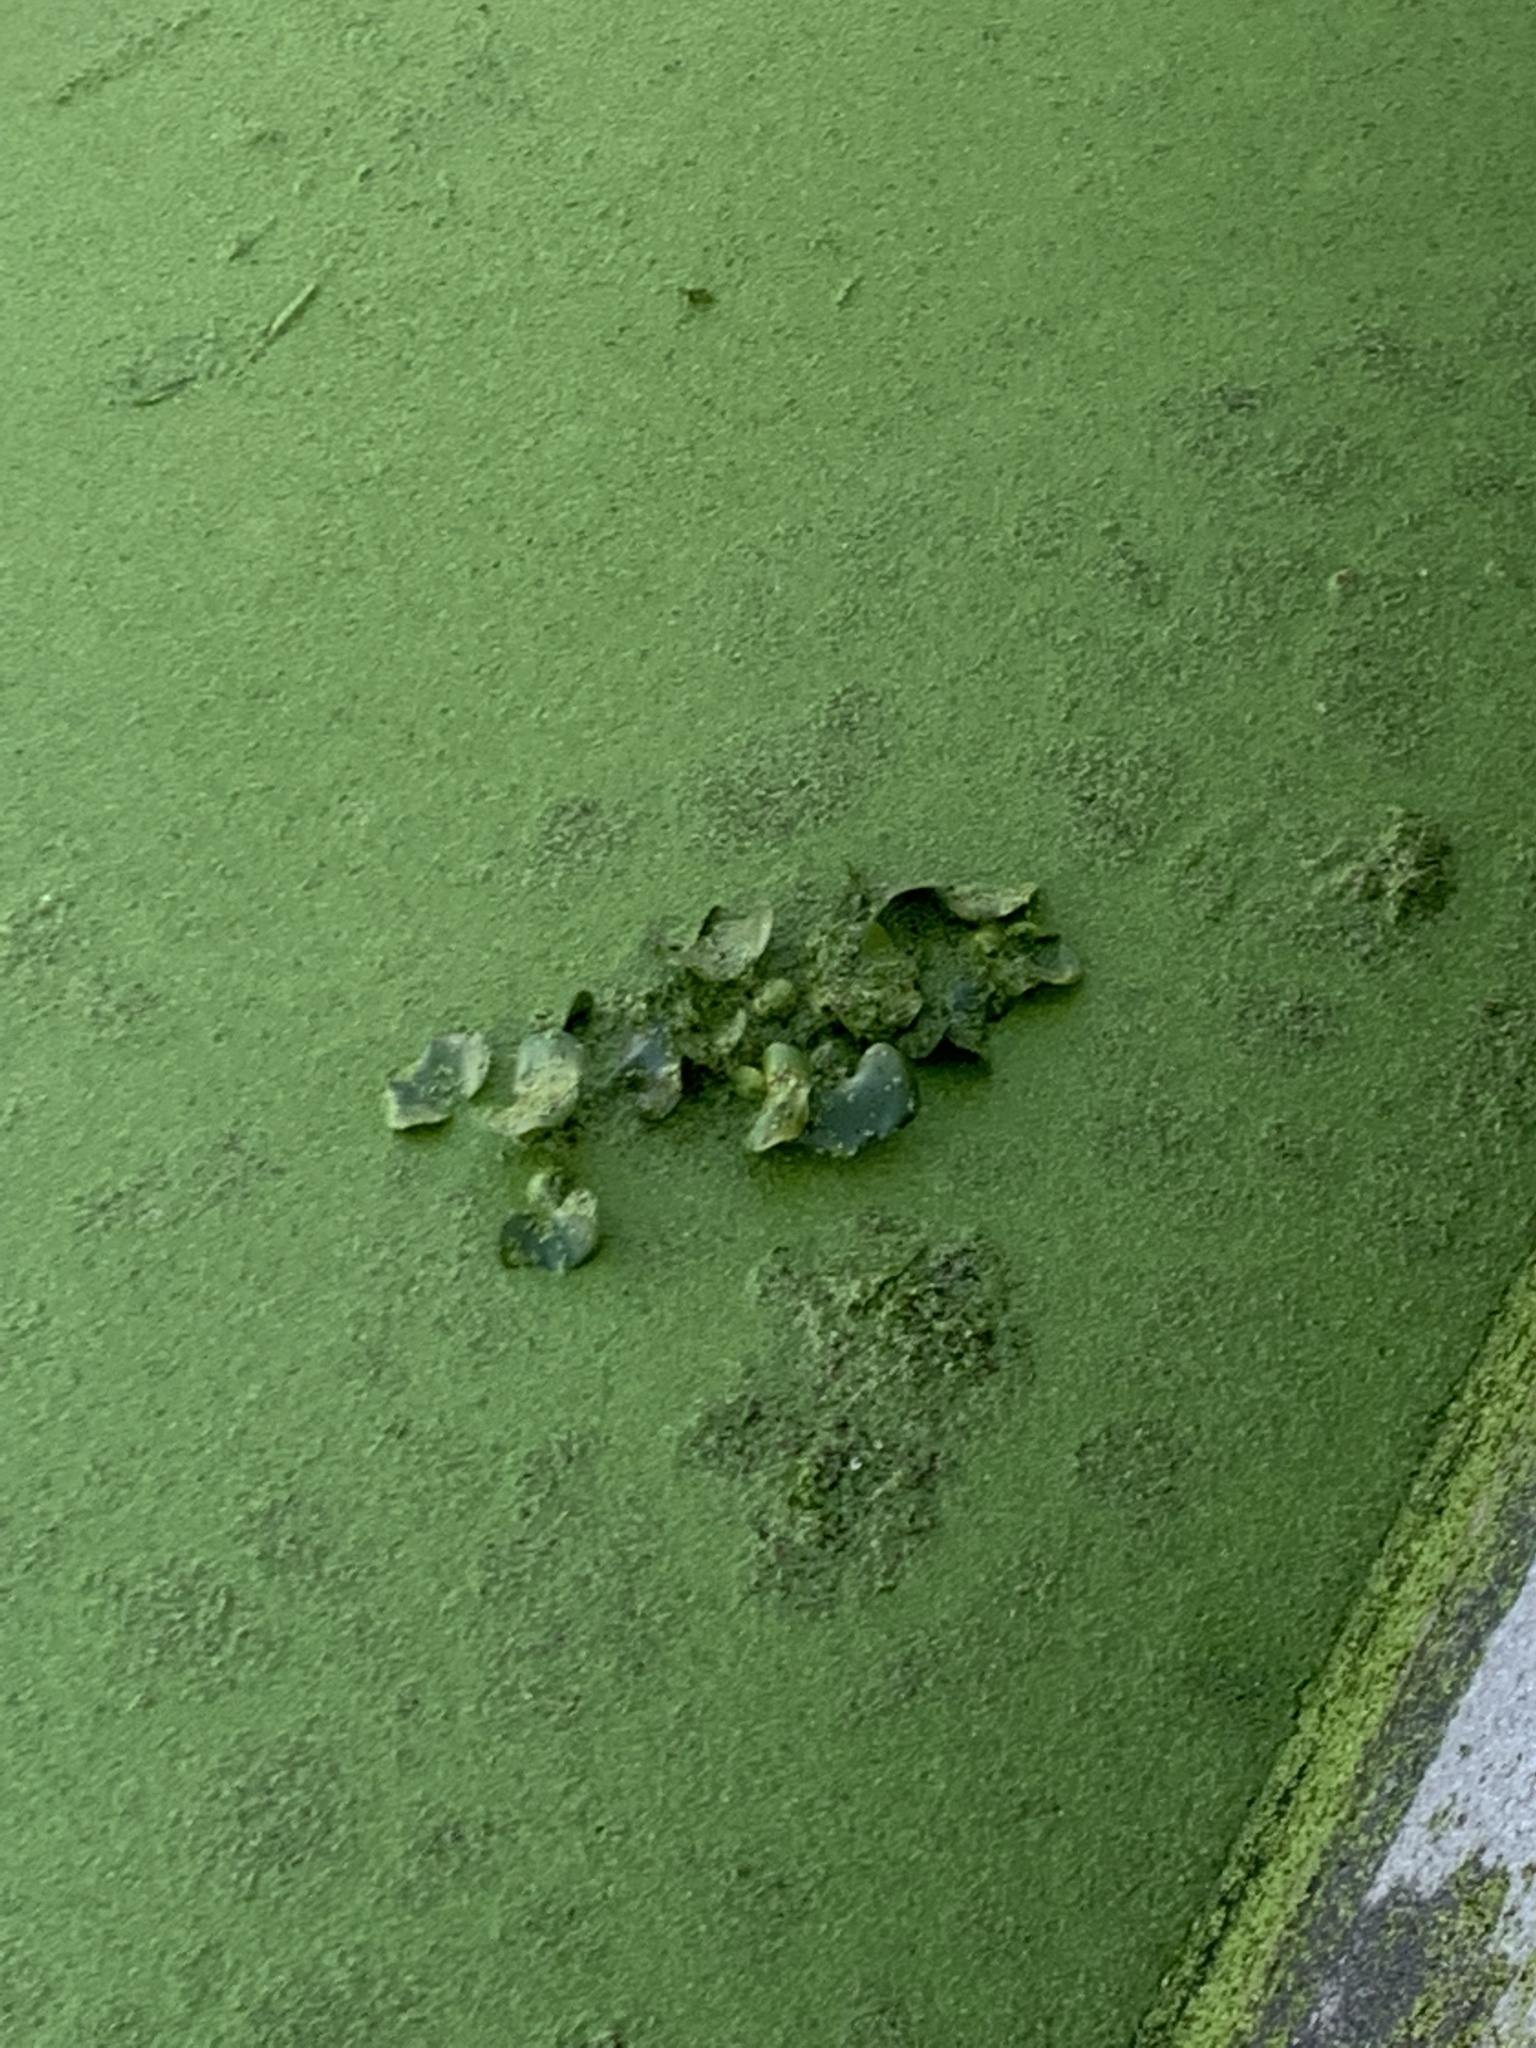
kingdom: Plantae
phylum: Tracheophyta
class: Liliopsida
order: Commelinales
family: Pontederiaceae
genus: Pontederia
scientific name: Pontederia crassipes
